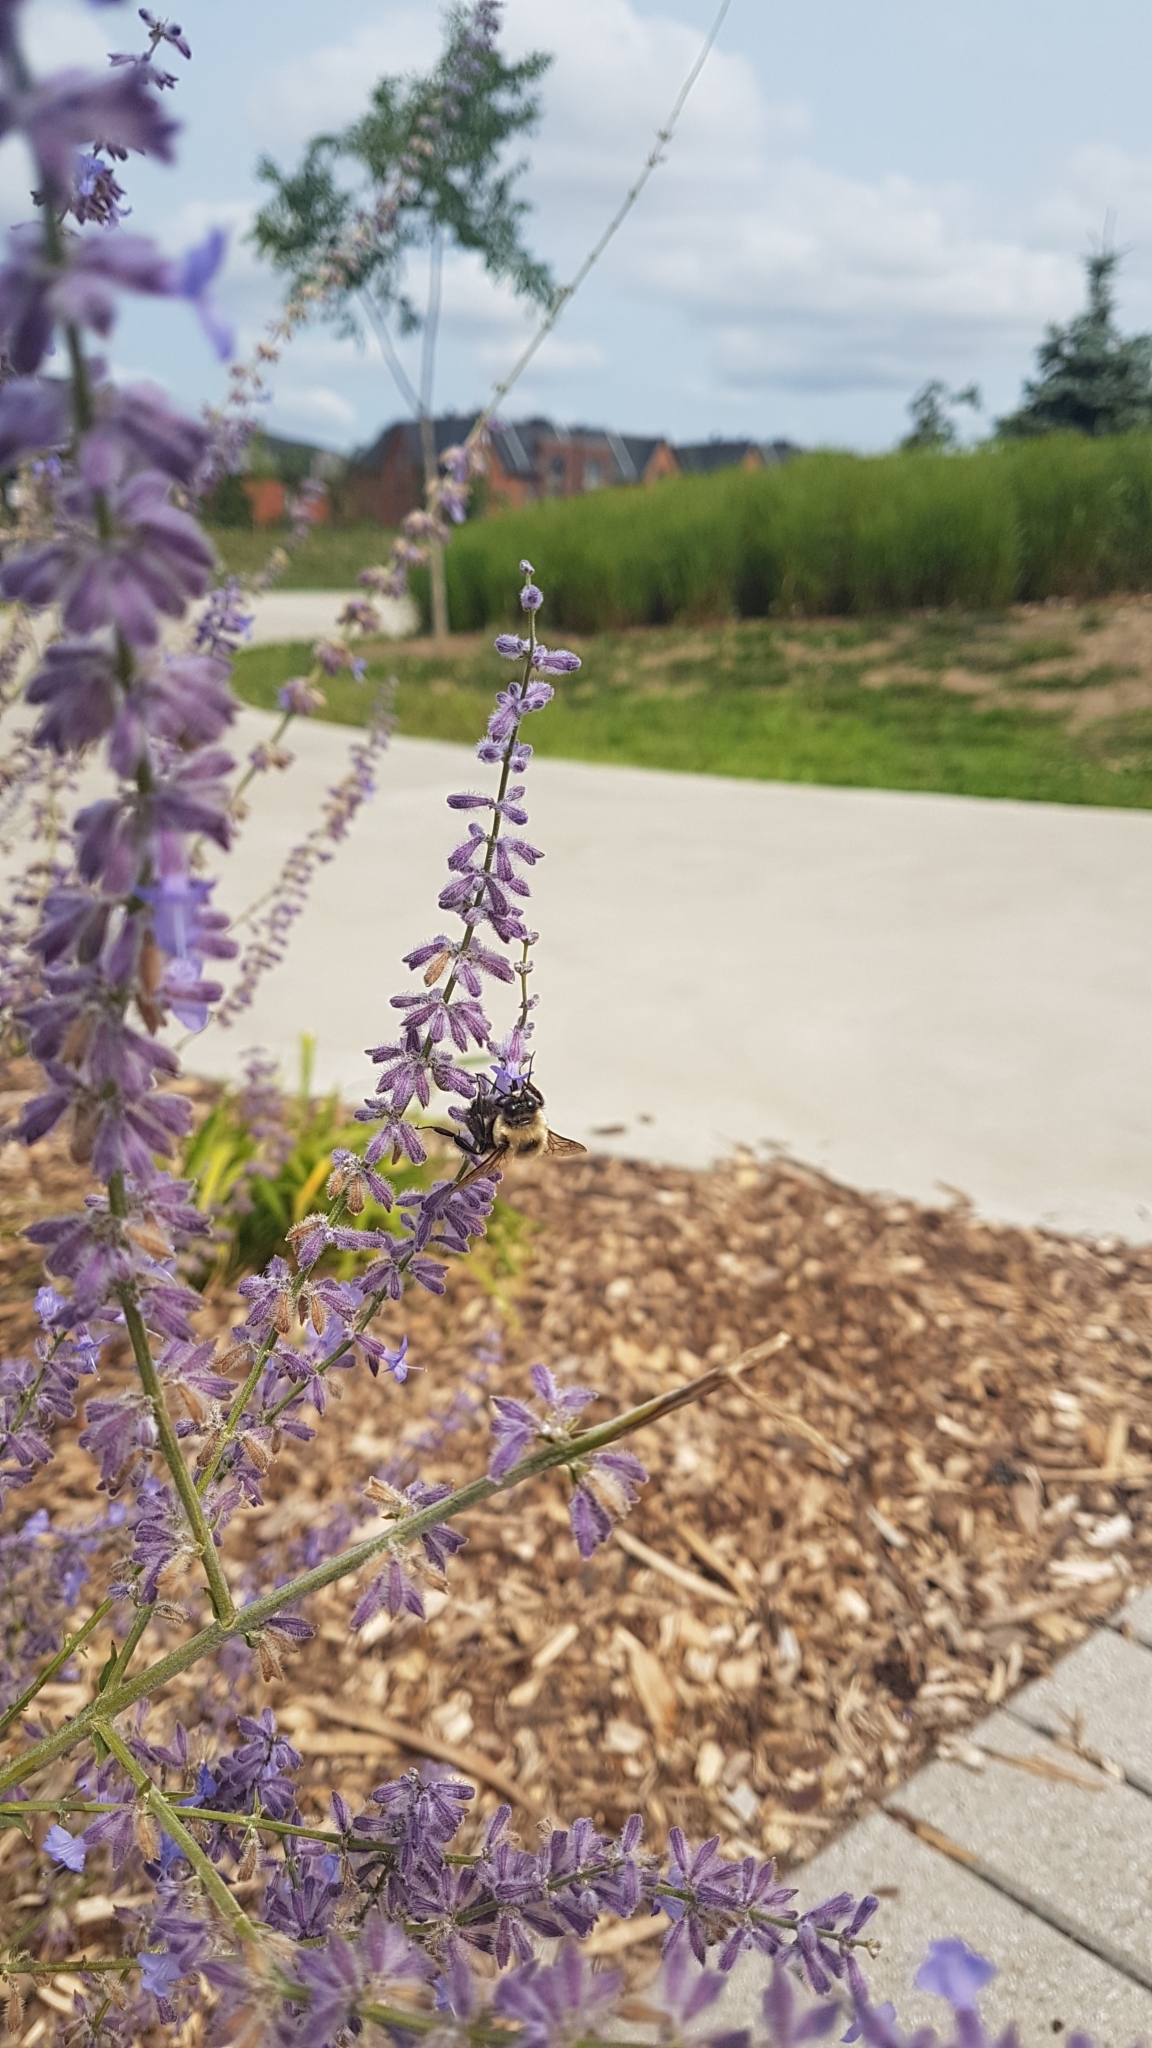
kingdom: Animalia
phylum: Arthropoda
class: Insecta
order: Hymenoptera
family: Apidae
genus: Bombus
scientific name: Bombus griseocollis
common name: Brown-belted bumble bee
